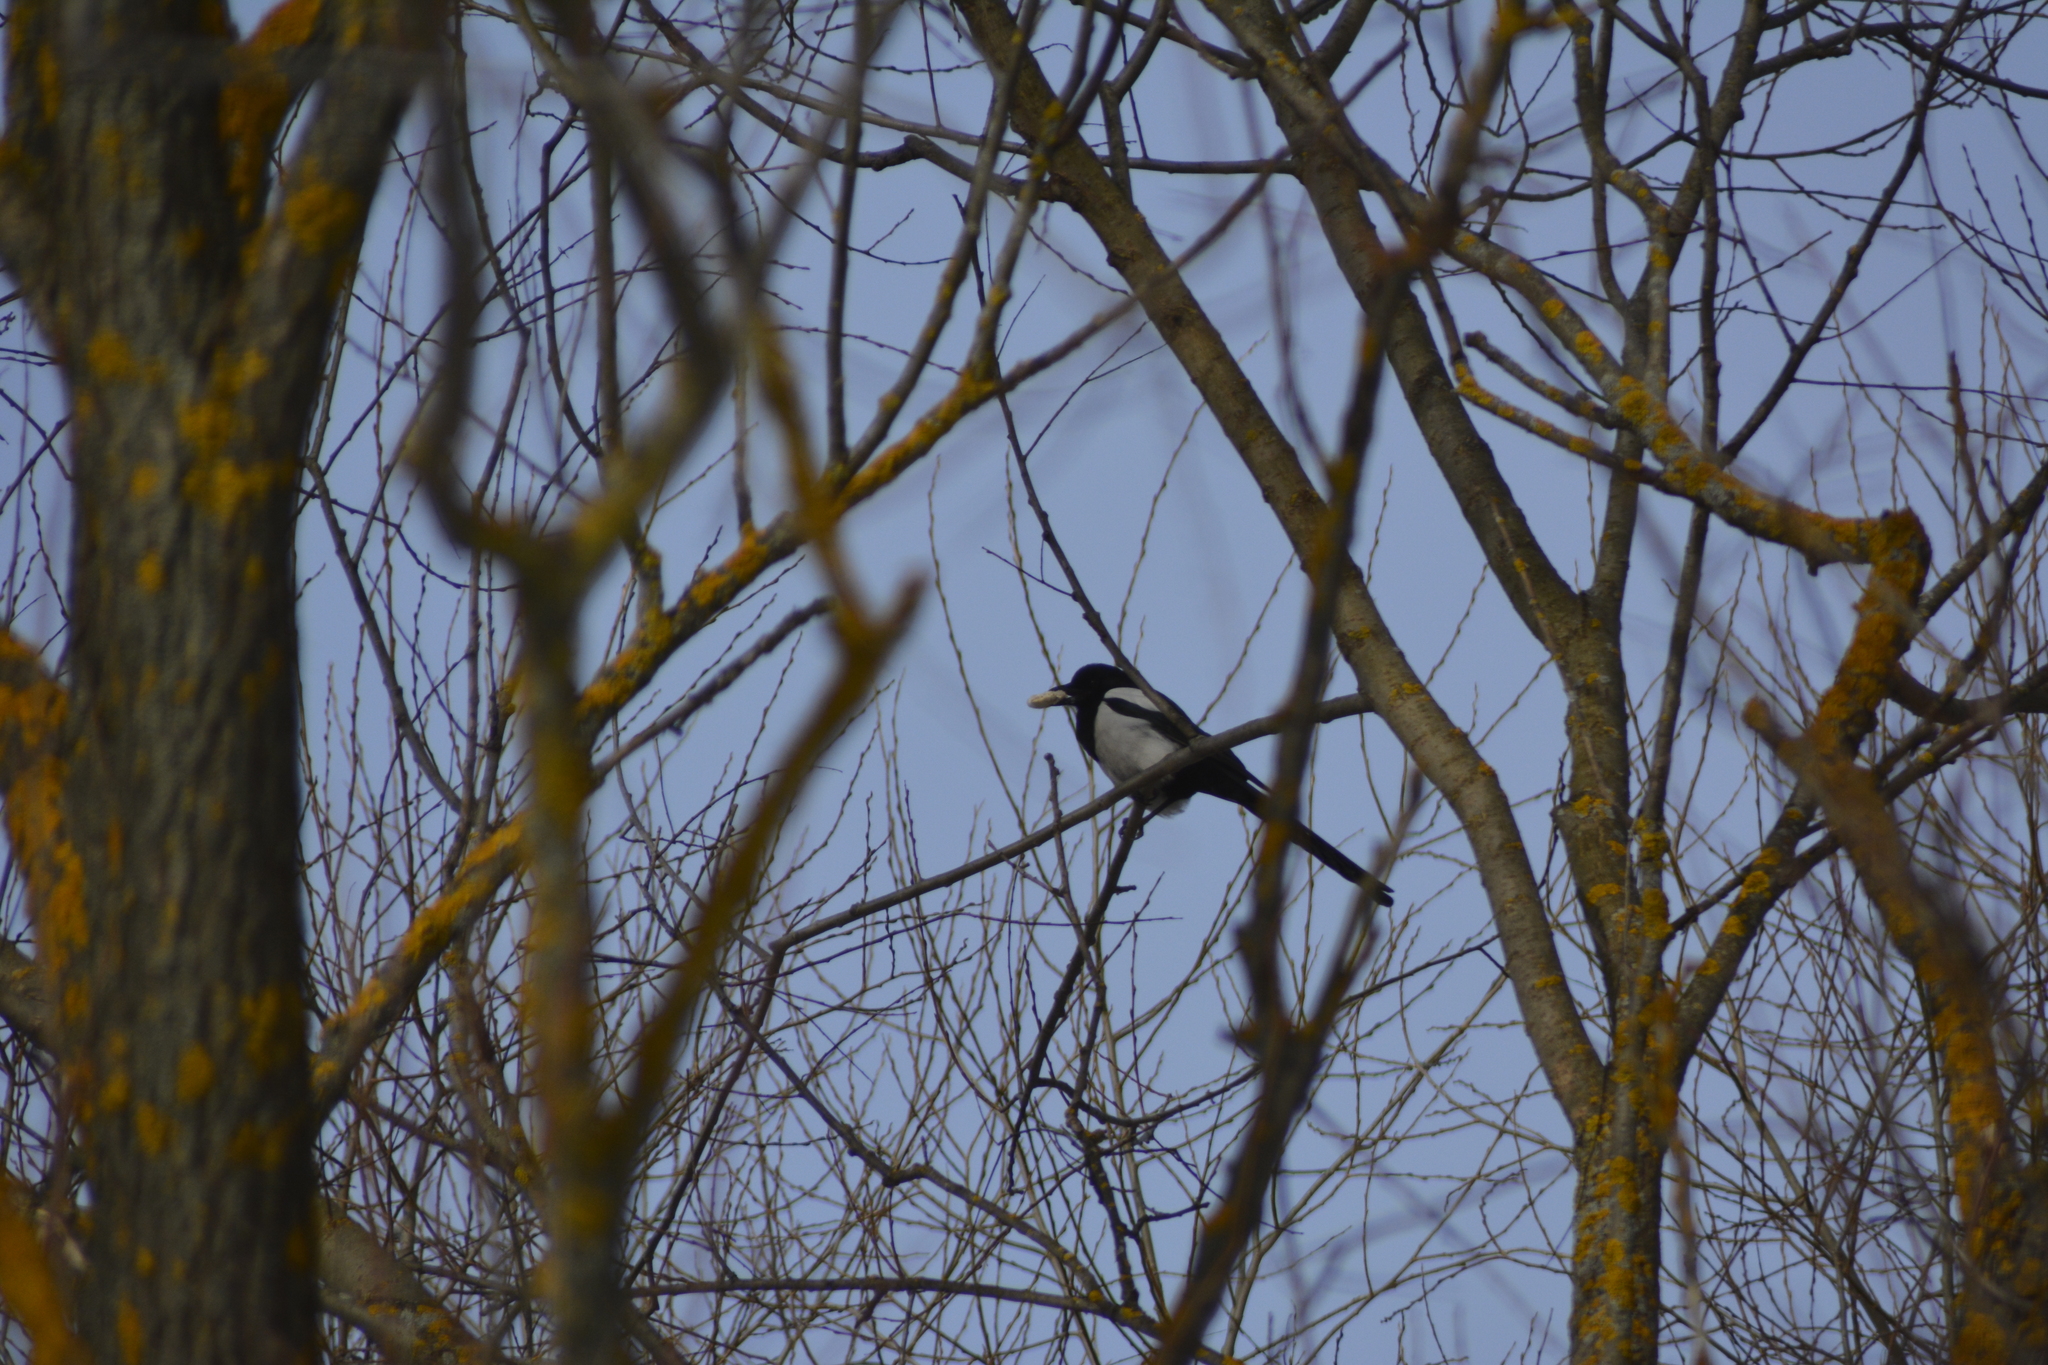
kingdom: Animalia
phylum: Chordata
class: Aves
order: Passeriformes
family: Corvidae
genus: Pica
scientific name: Pica pica
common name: Eurasian magpie
